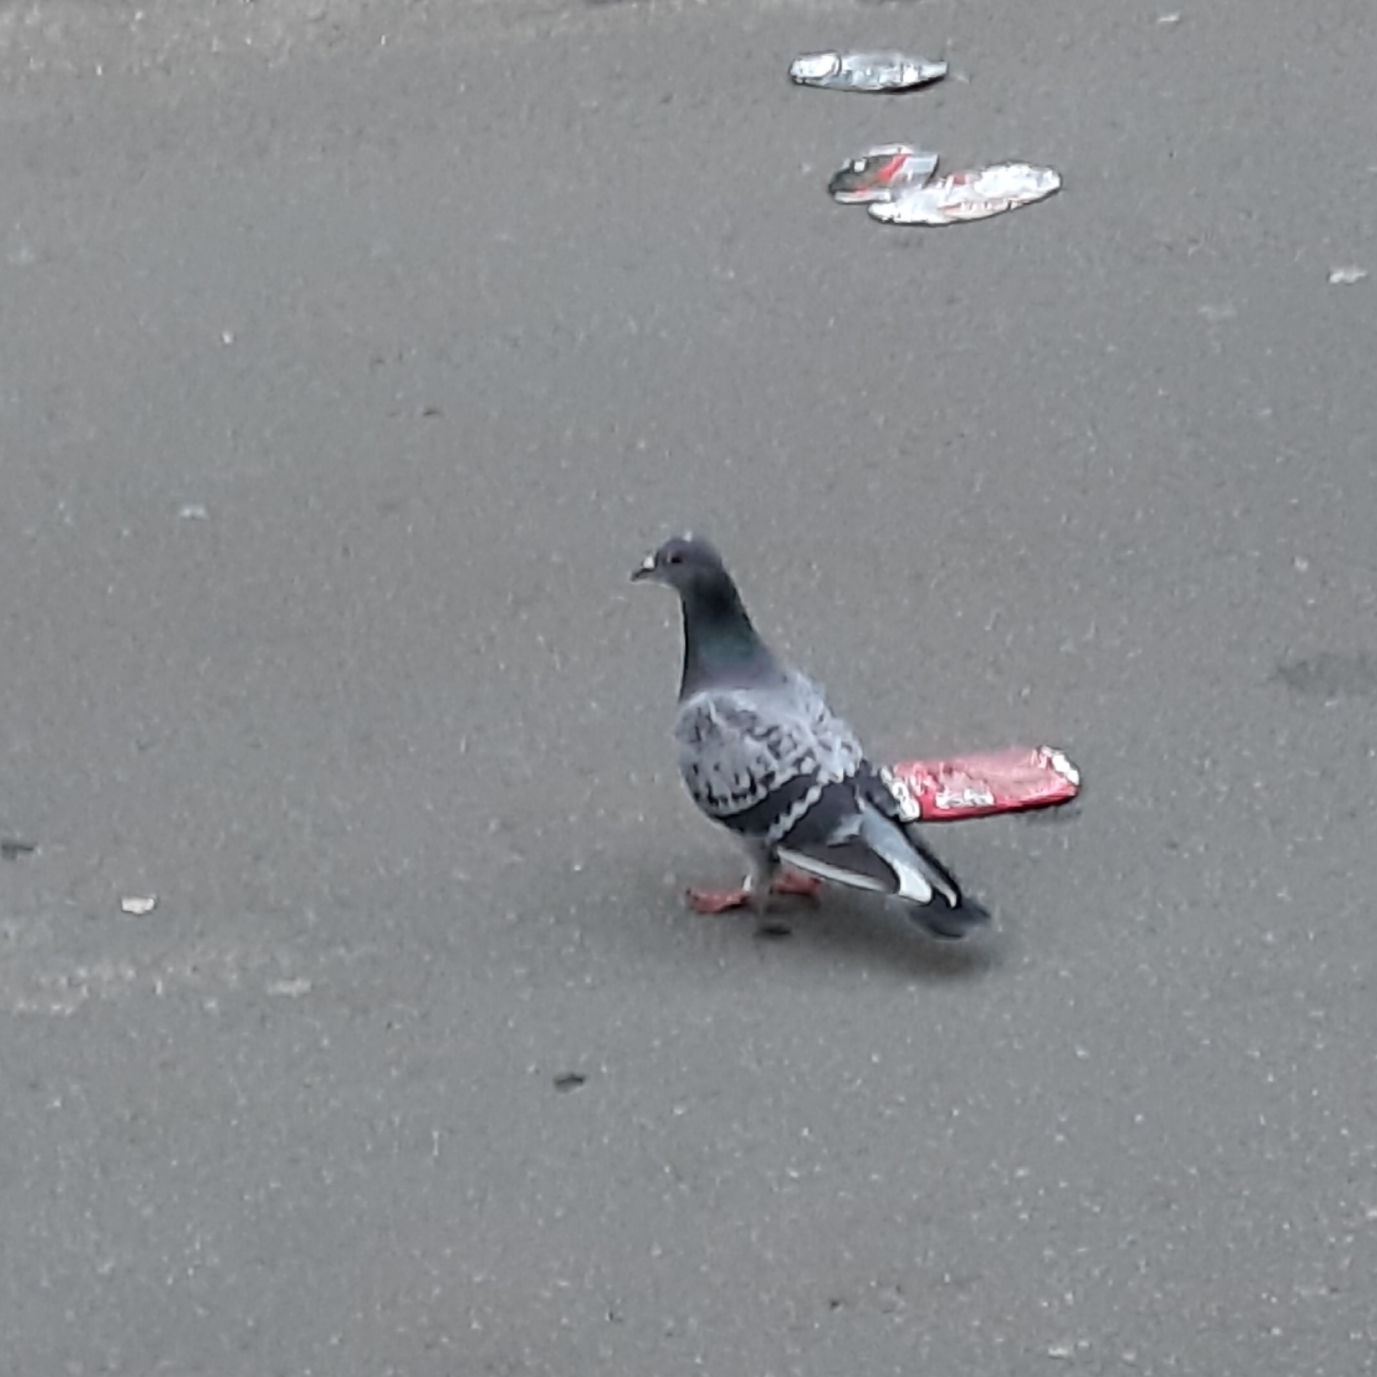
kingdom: Animalia
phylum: Chordata
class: Aves
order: Columbiformes
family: Columbidae
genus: Columba
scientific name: Columba livia
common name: Rock pigeon
